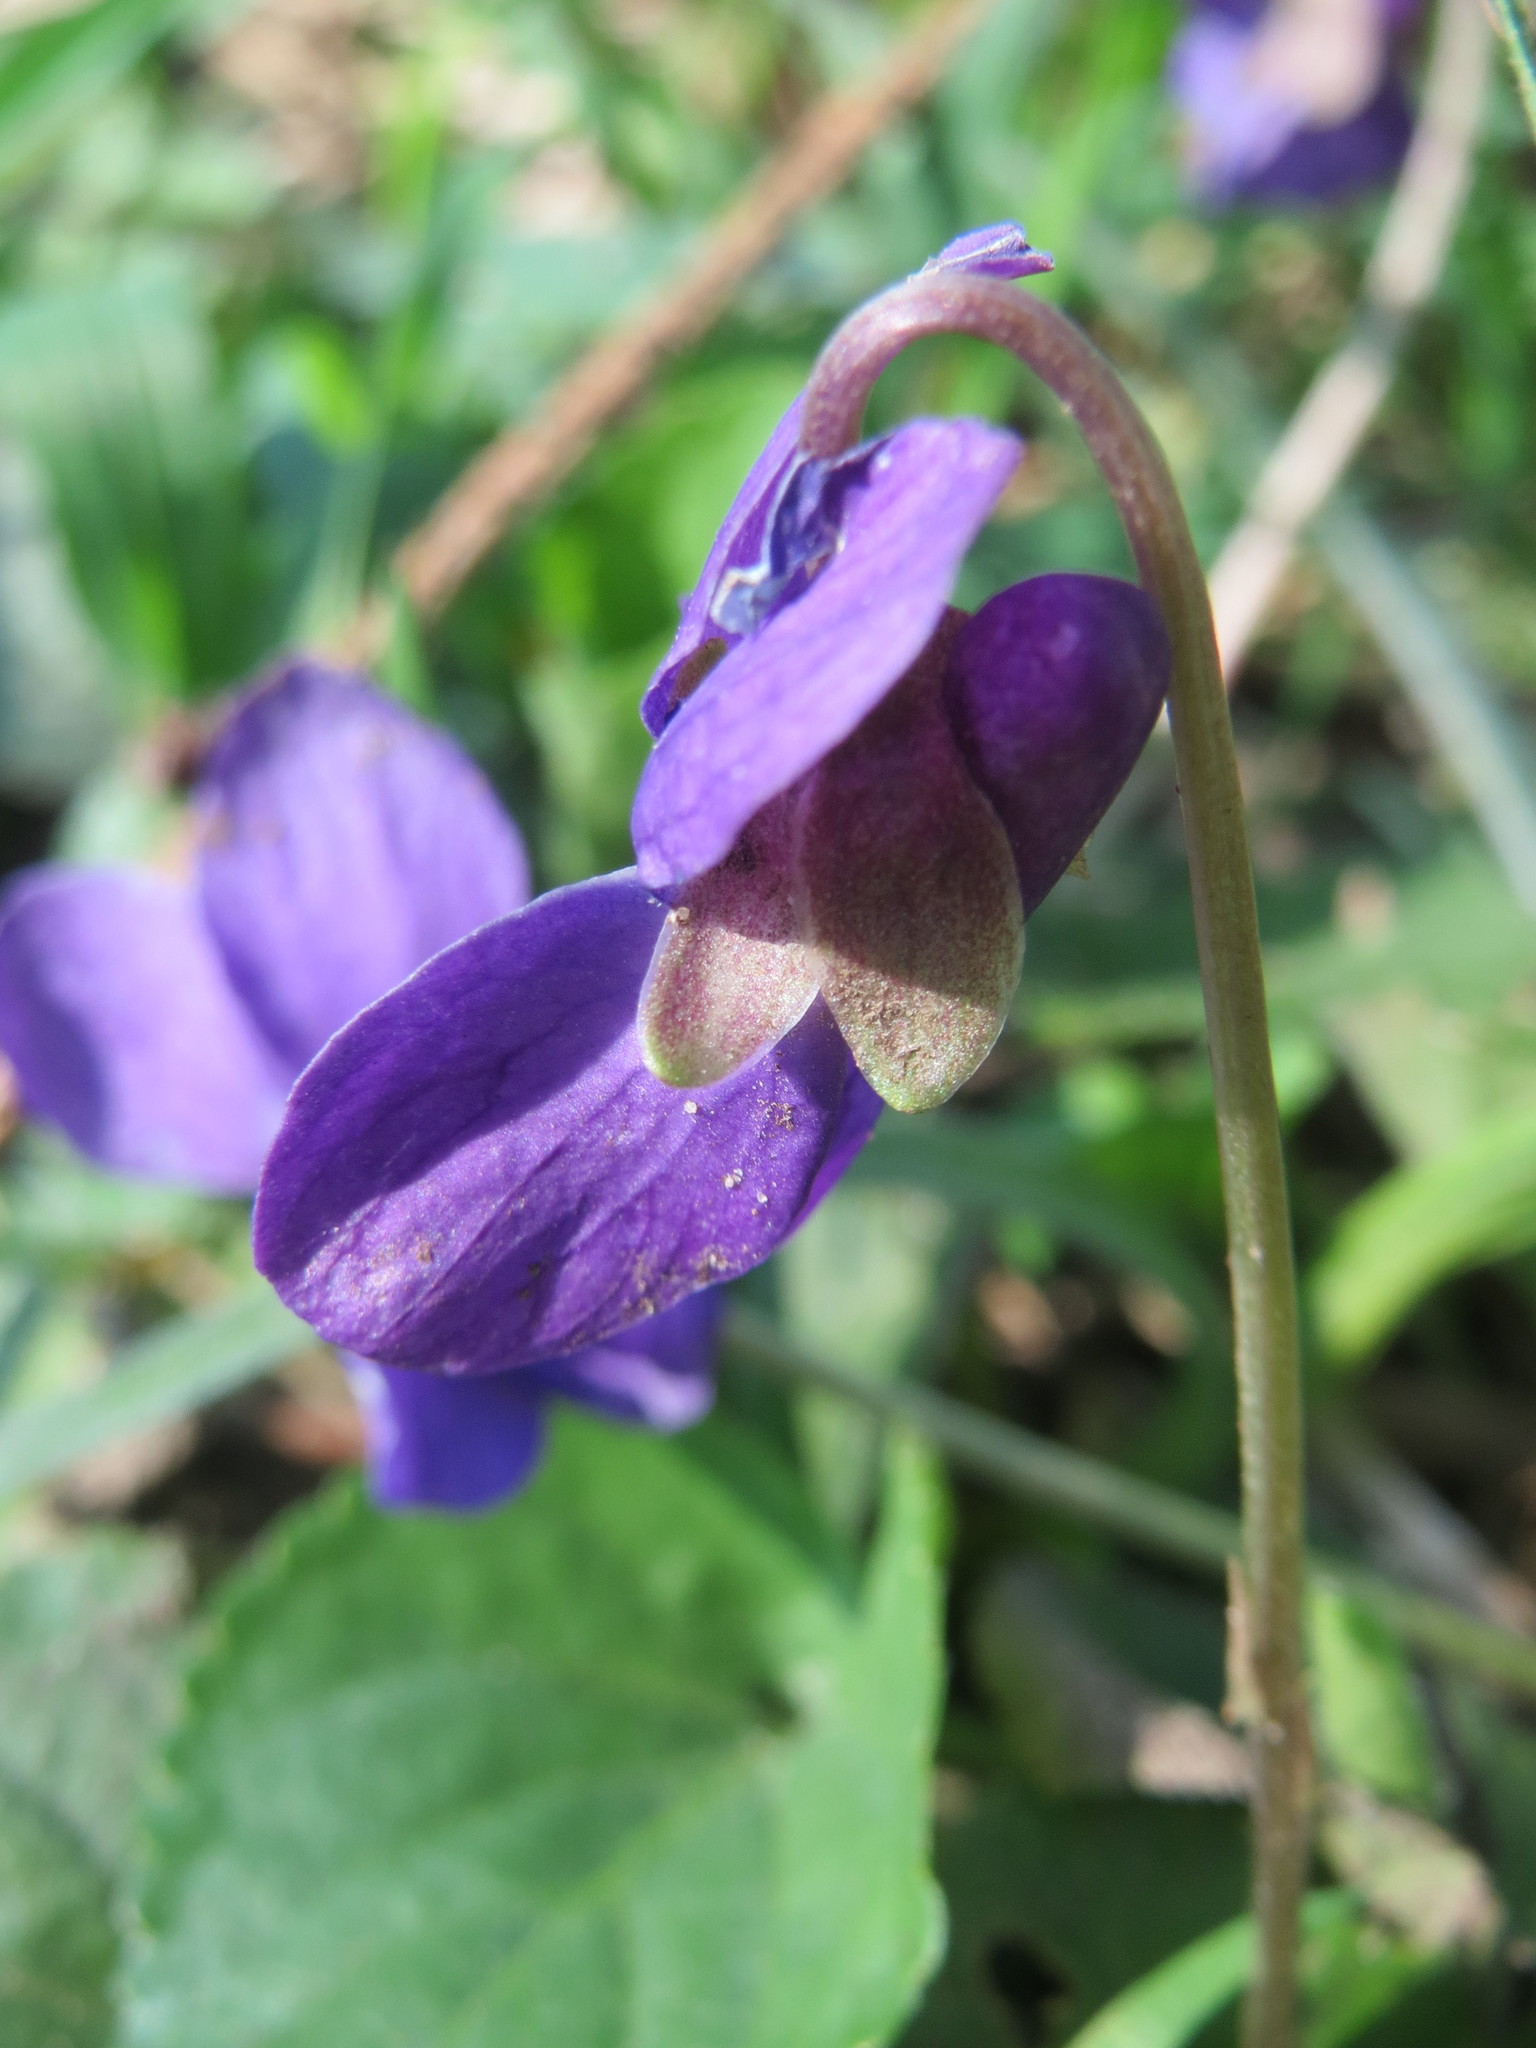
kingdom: Plantae
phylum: Tracheophyta
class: Magnoliopsida
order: Malpighiales
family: Violaceae
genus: Viola
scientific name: Viola odorata
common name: Sweet violet
